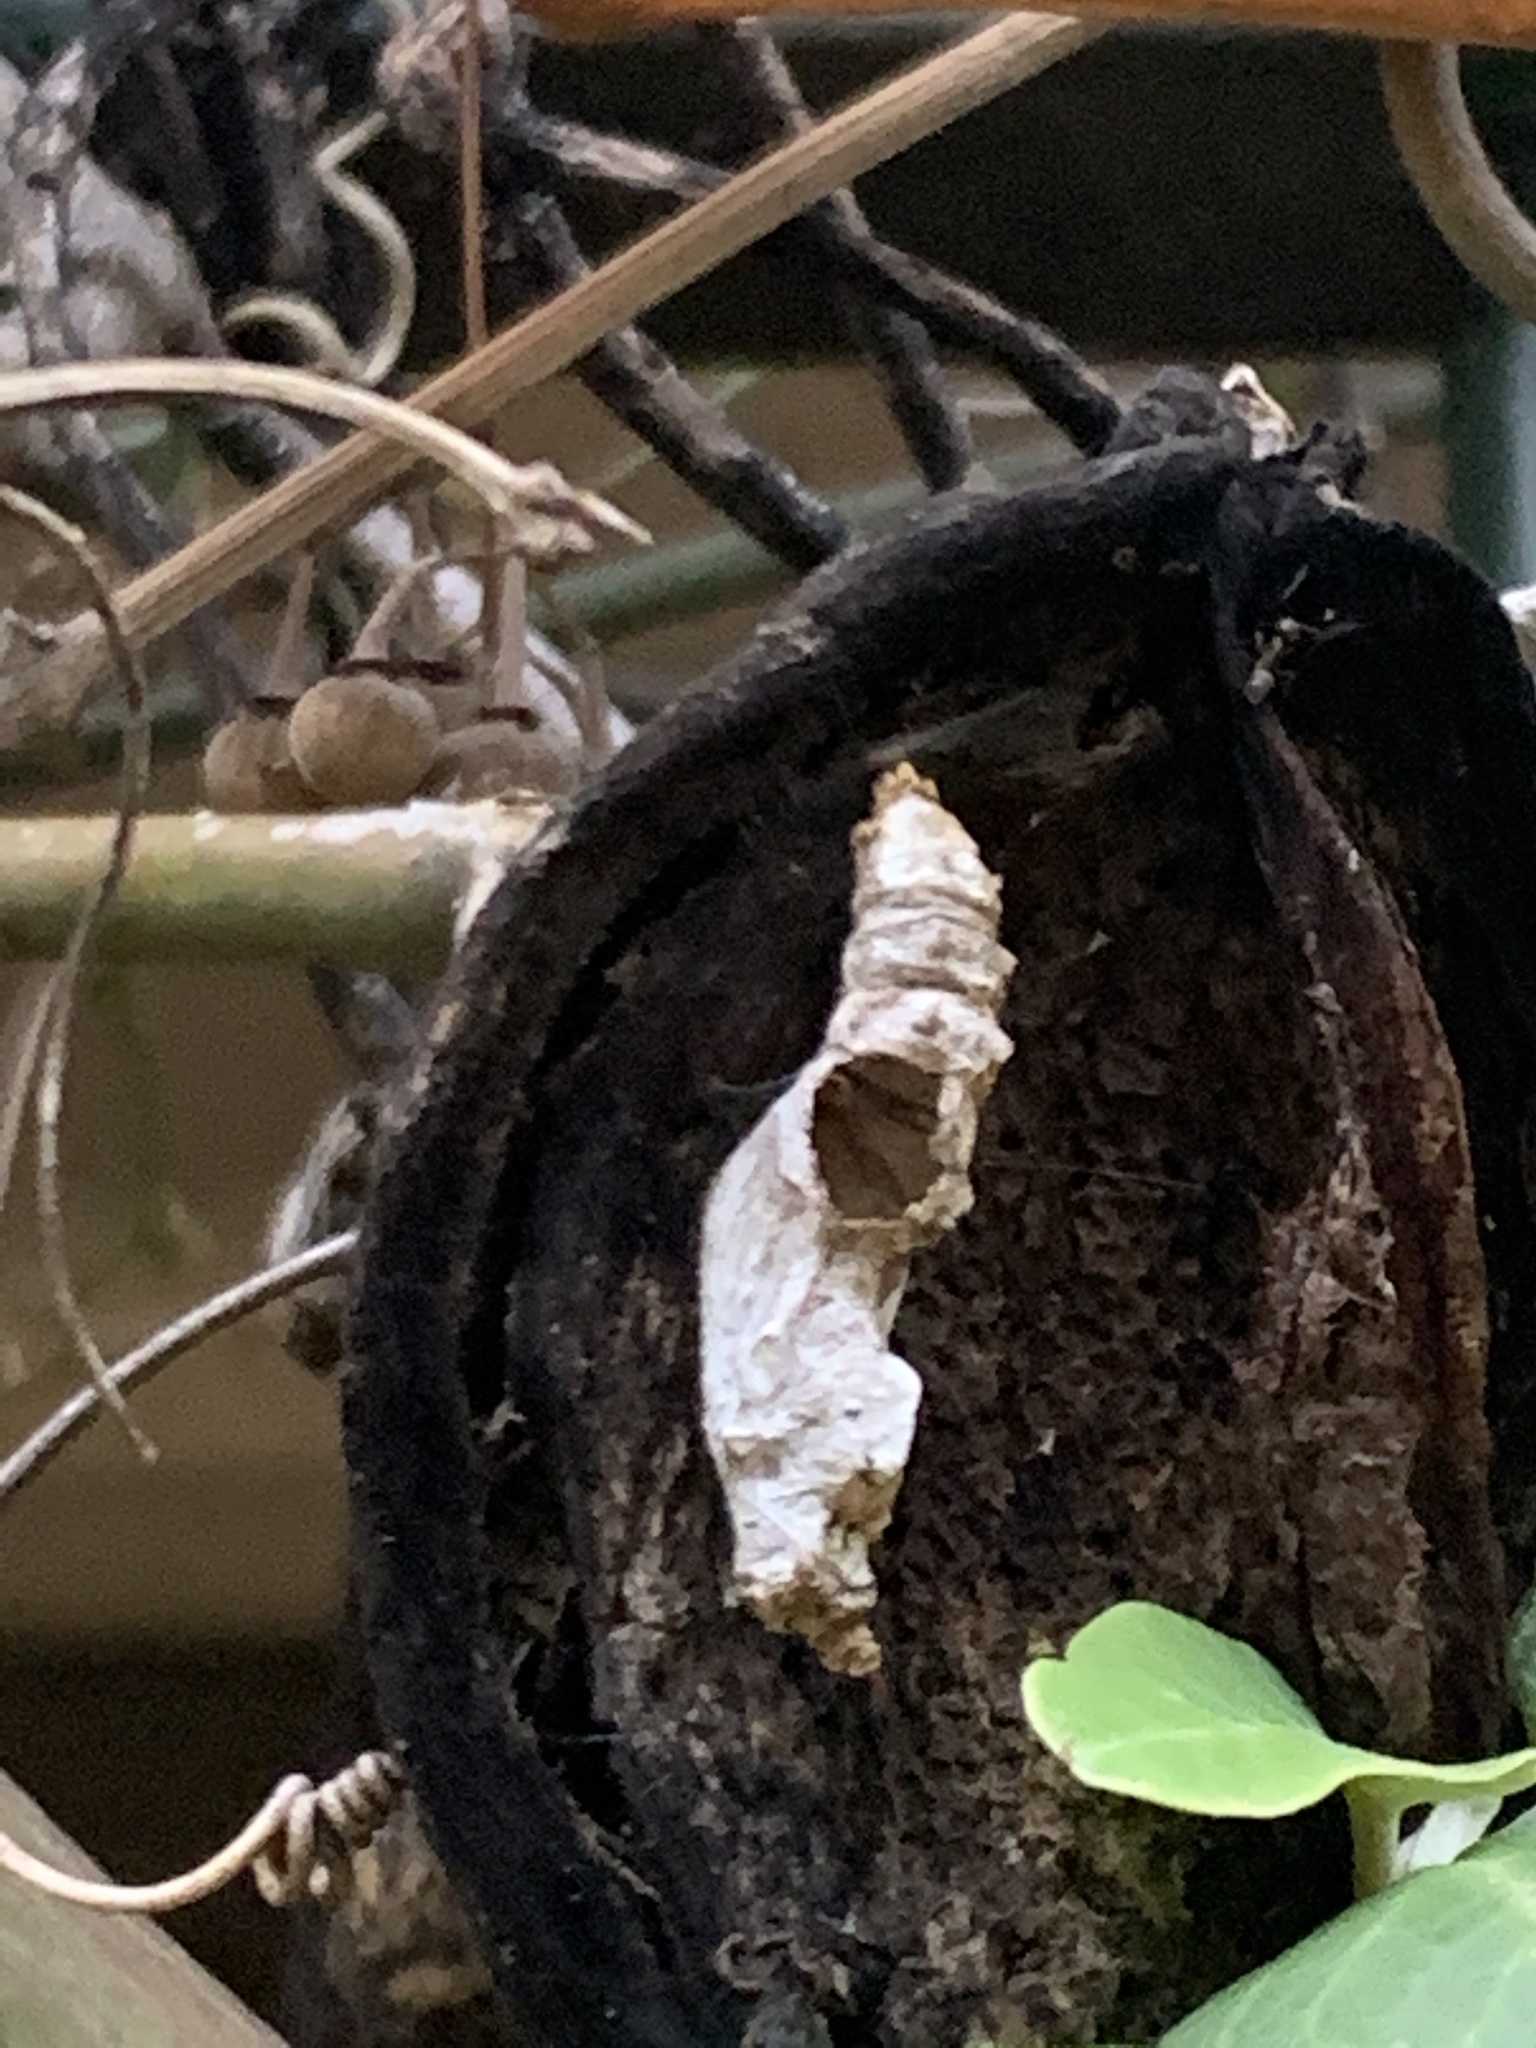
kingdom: Animalia
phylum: Arthropoda
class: Insecta
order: Lepidoptera
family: Nymphalidae
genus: Dione
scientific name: Dione vanillae
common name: Gulf fritillary
